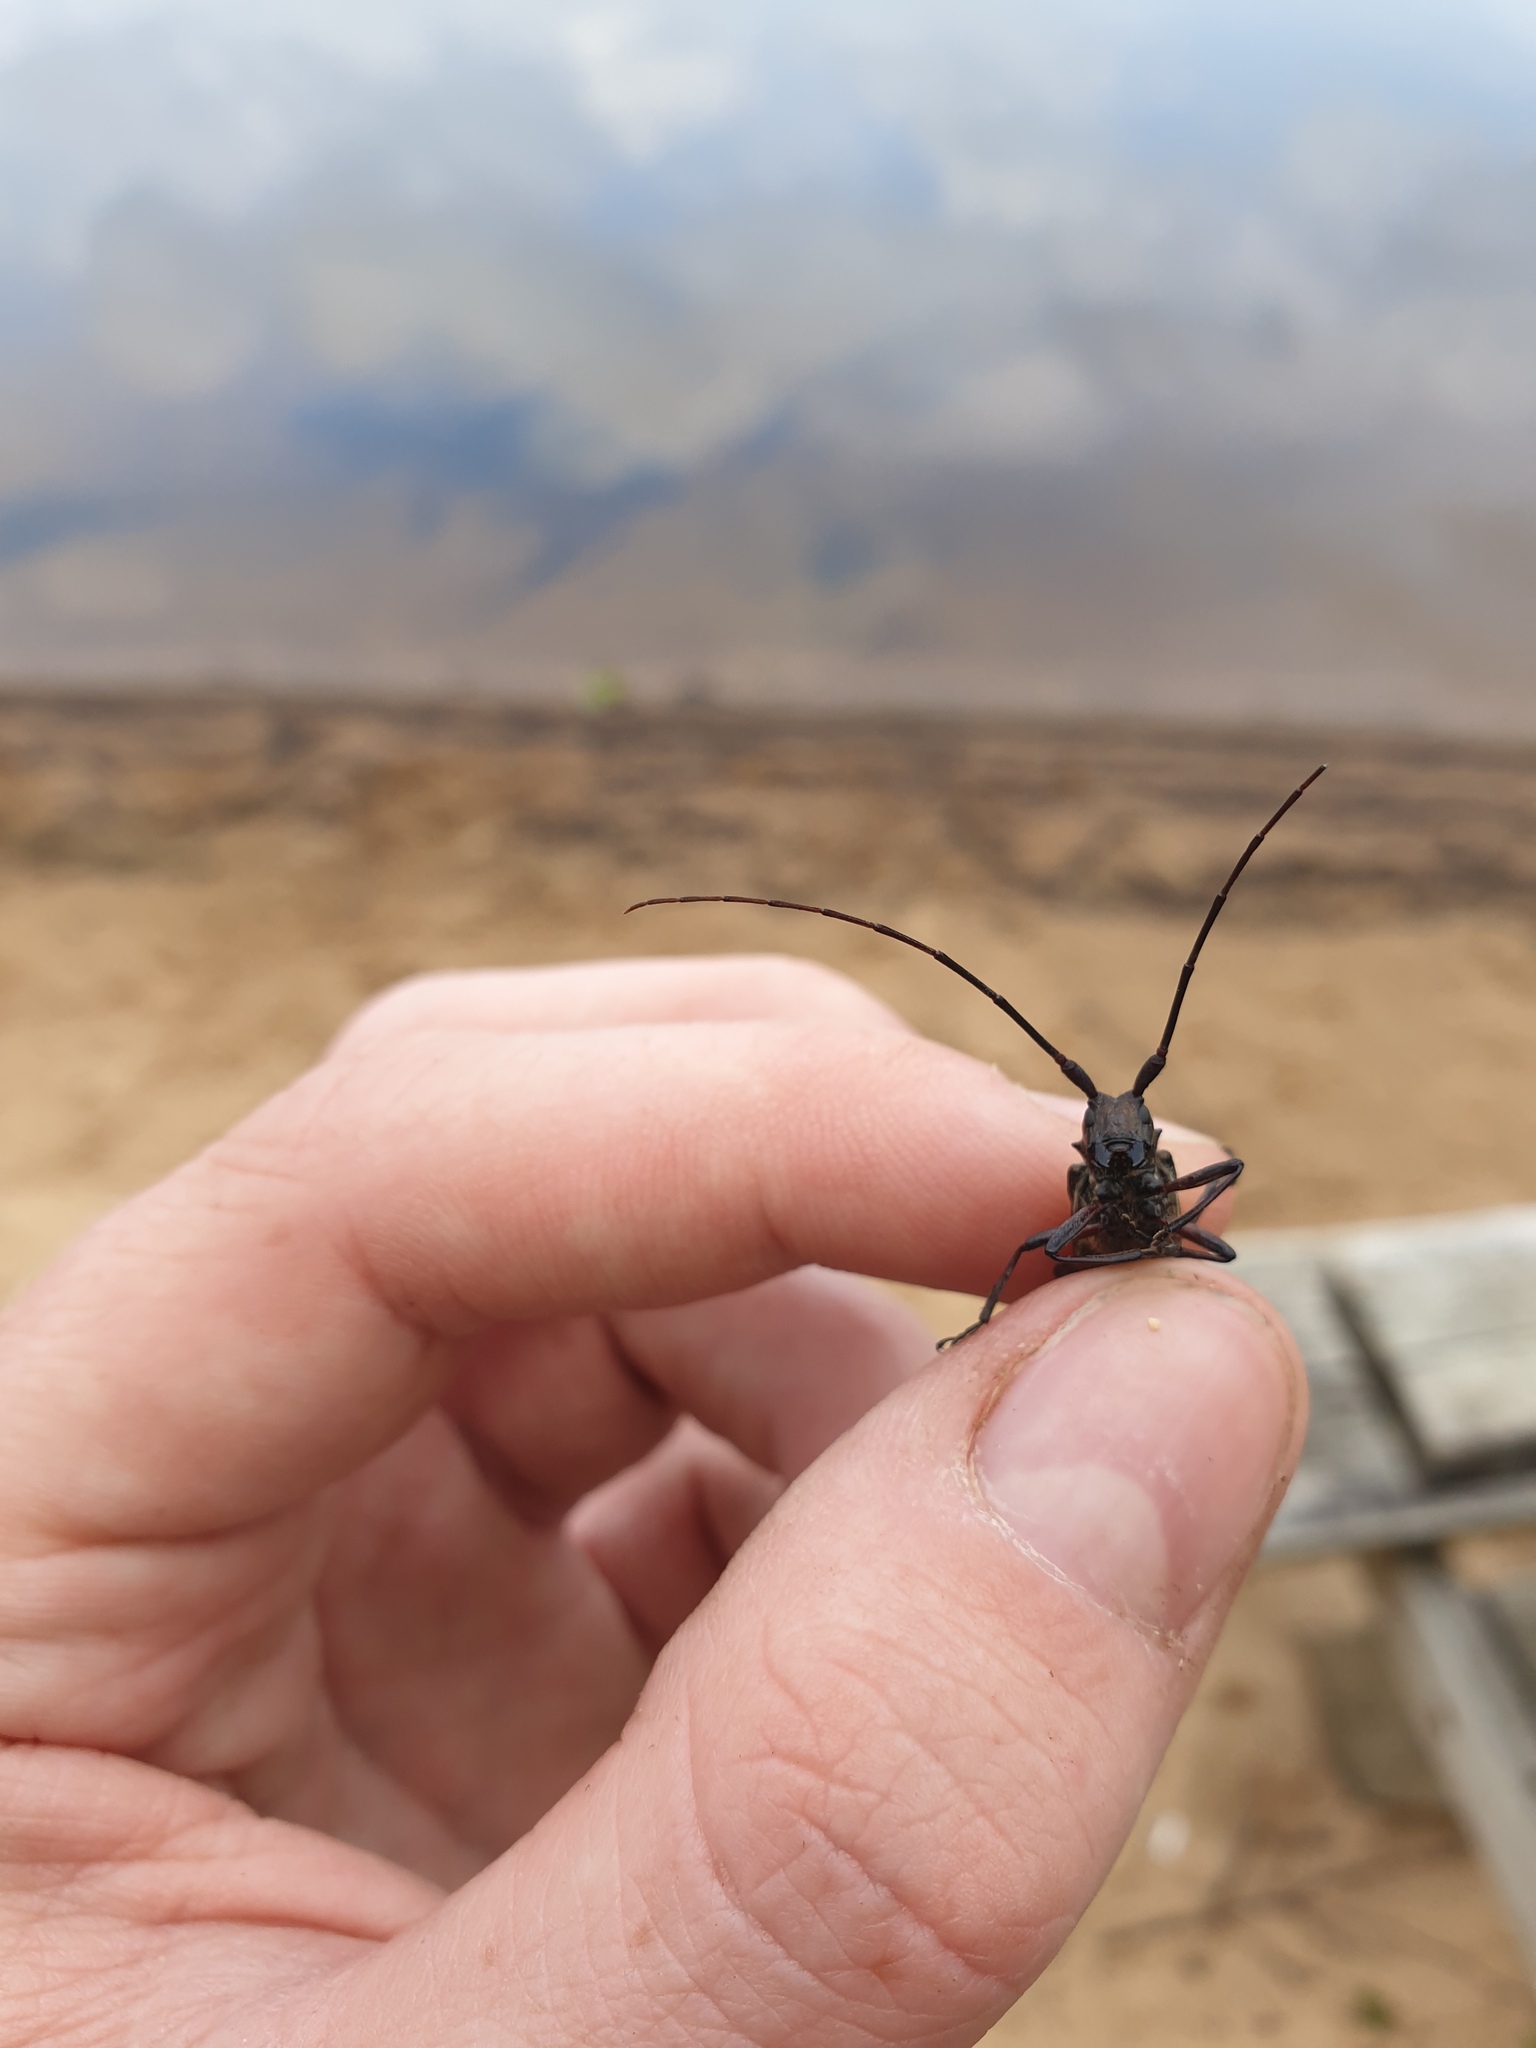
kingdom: Animalia
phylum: Arthropoda
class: Insecta
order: Coleoptera
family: Cerambycidae
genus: Monochamus
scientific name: Monochamus scutellatus
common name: White-spotted sawyer beetle
